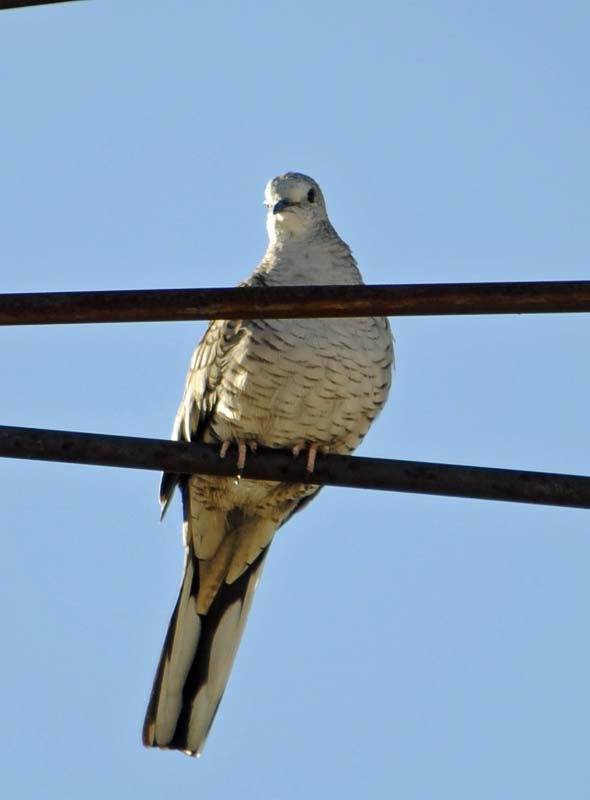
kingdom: Animalia
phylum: Chordata
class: Aves
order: Columbiformes
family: Columbidae
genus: Columbina
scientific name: Columbina inca
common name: Inca dove
